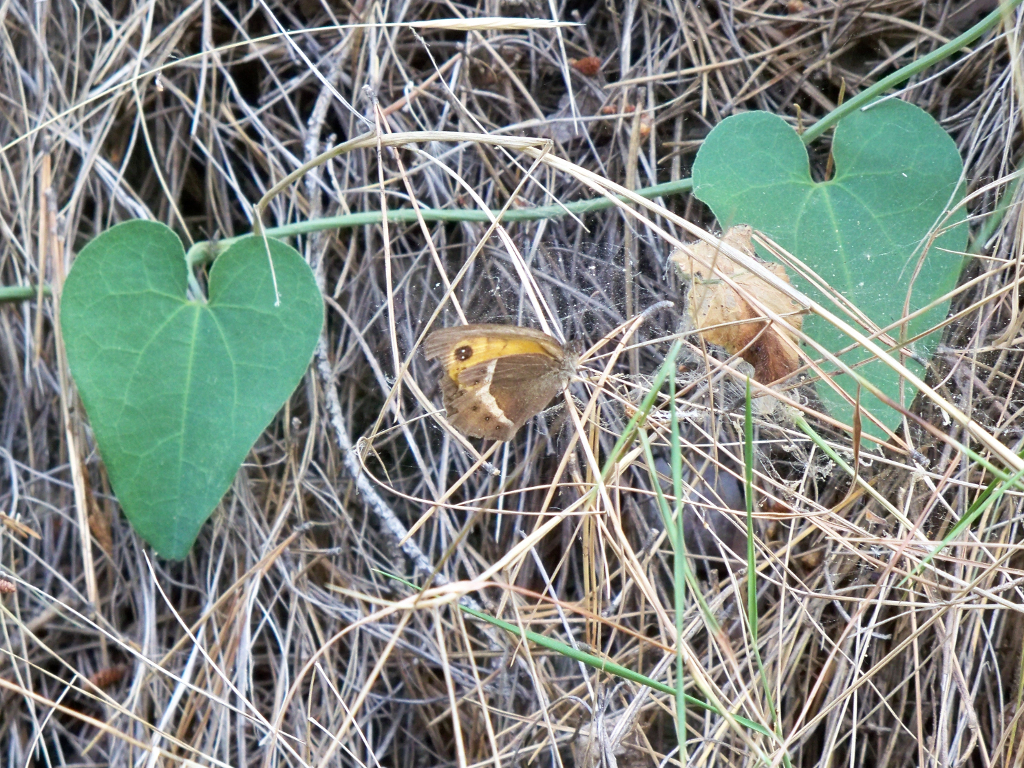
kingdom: Animalia
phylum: Arthropoda
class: Insecta
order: Lepidoptera
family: Nymphalidae
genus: Pyronia
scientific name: Pyronia bathseba
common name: Spanish gatekeeper
